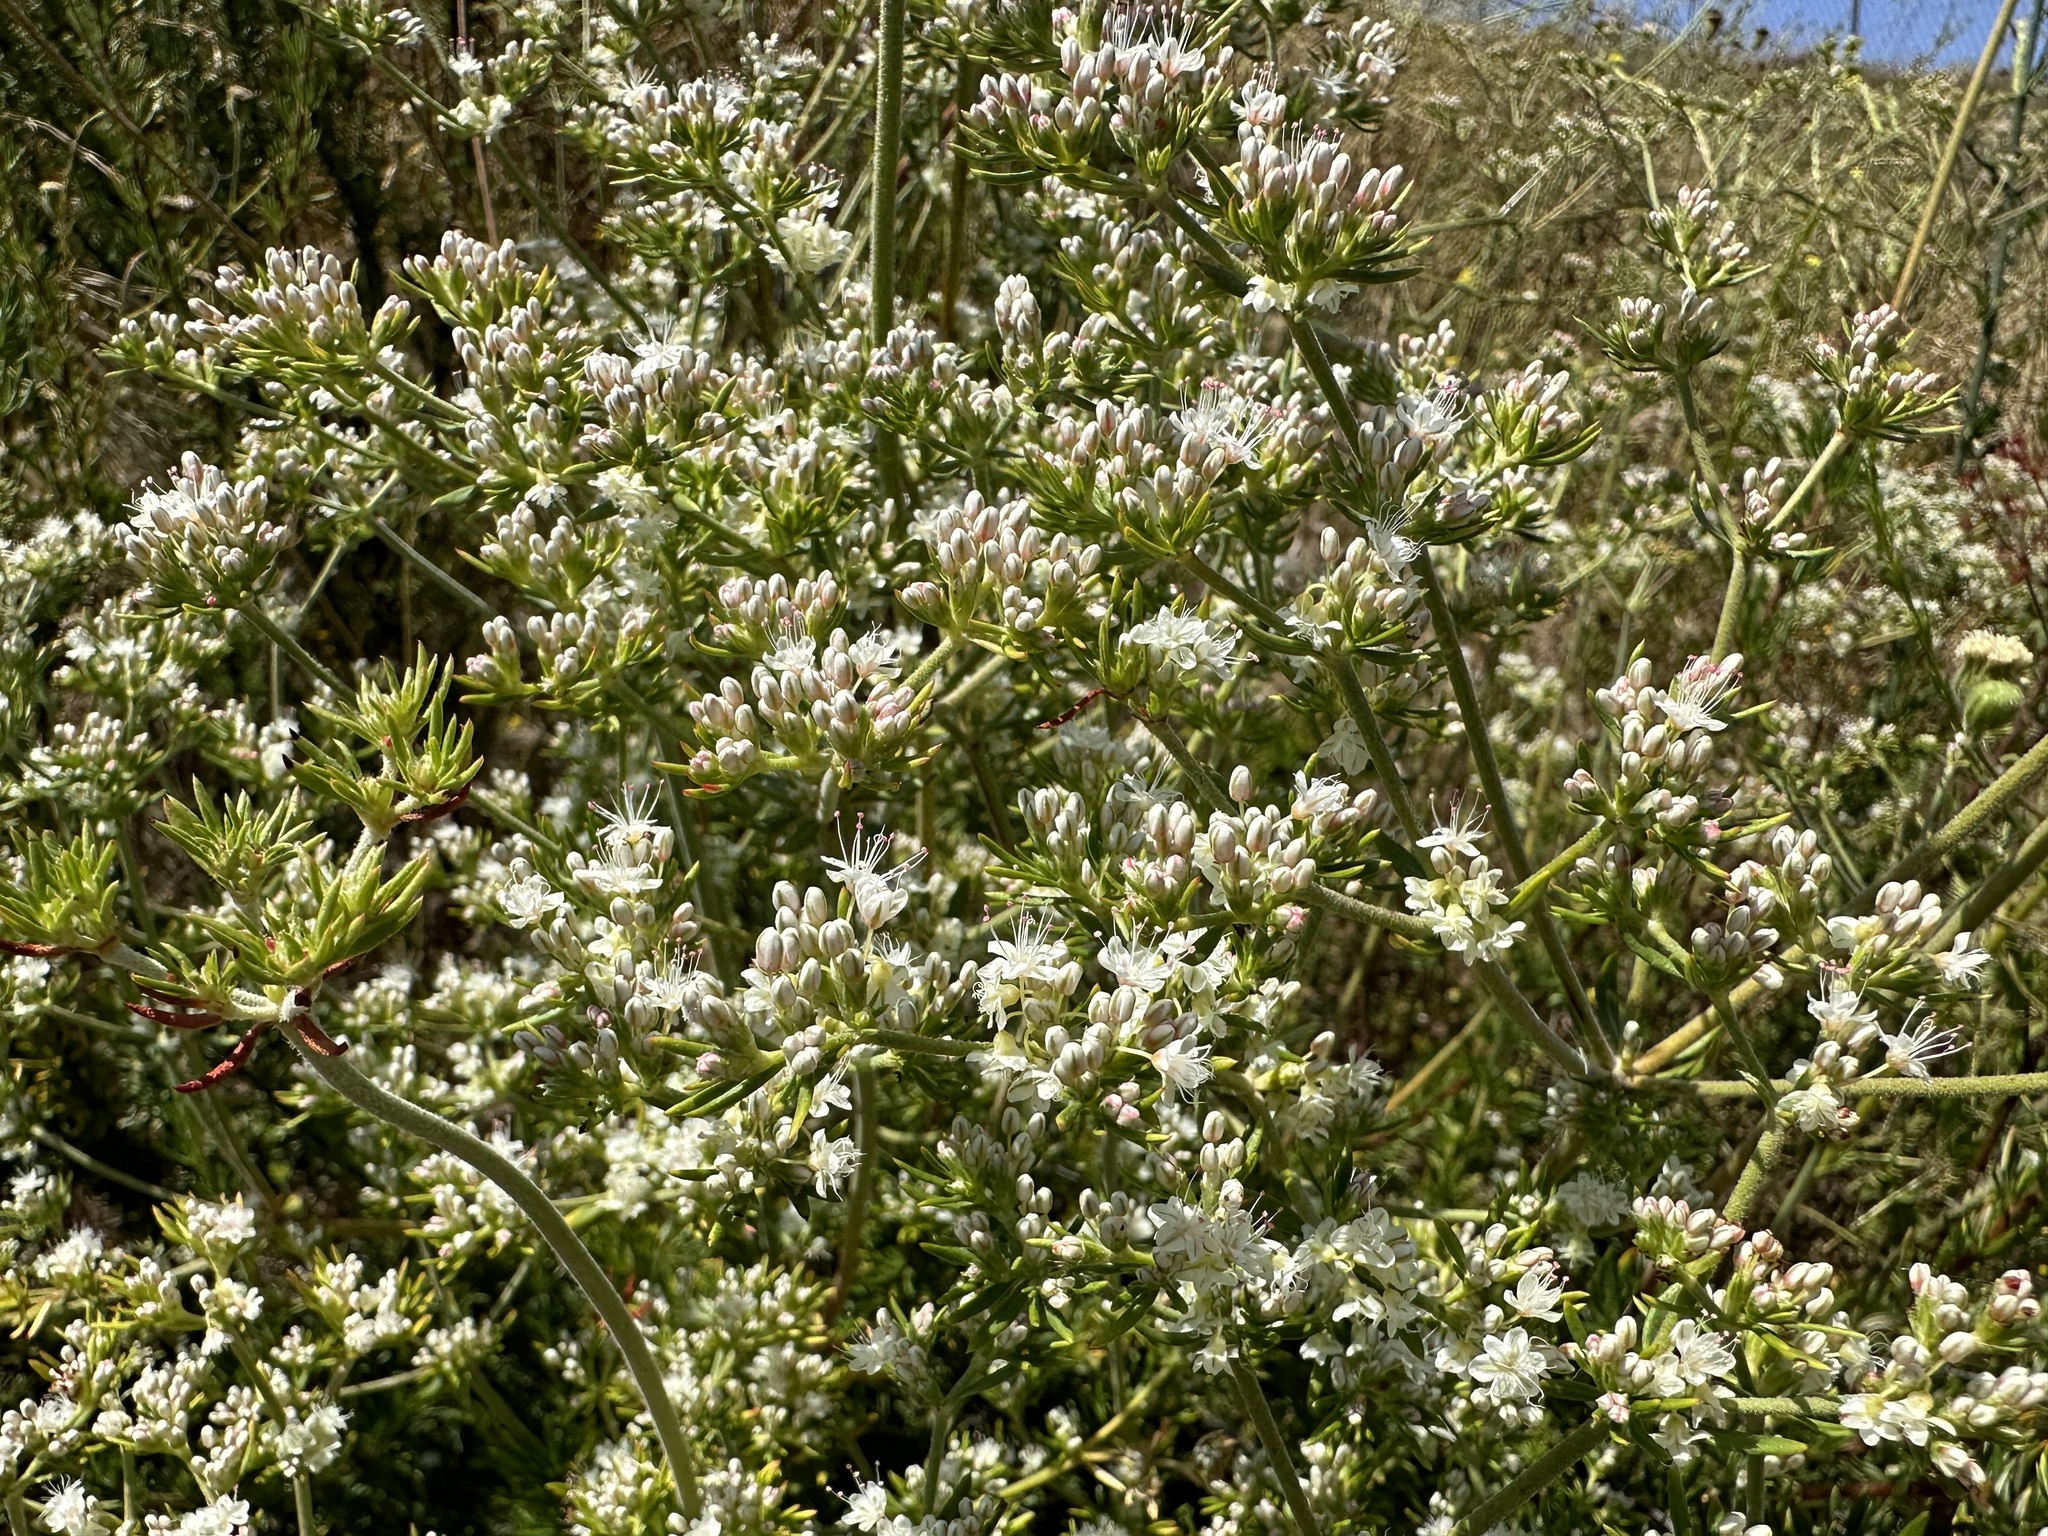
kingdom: Plantae
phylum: Tracheophyta
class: Magnoliopsida
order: Caryophyllales
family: Polygonaceae
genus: Eriogonum
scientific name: Eriogonum fasciculatum
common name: California wild buckwheat
